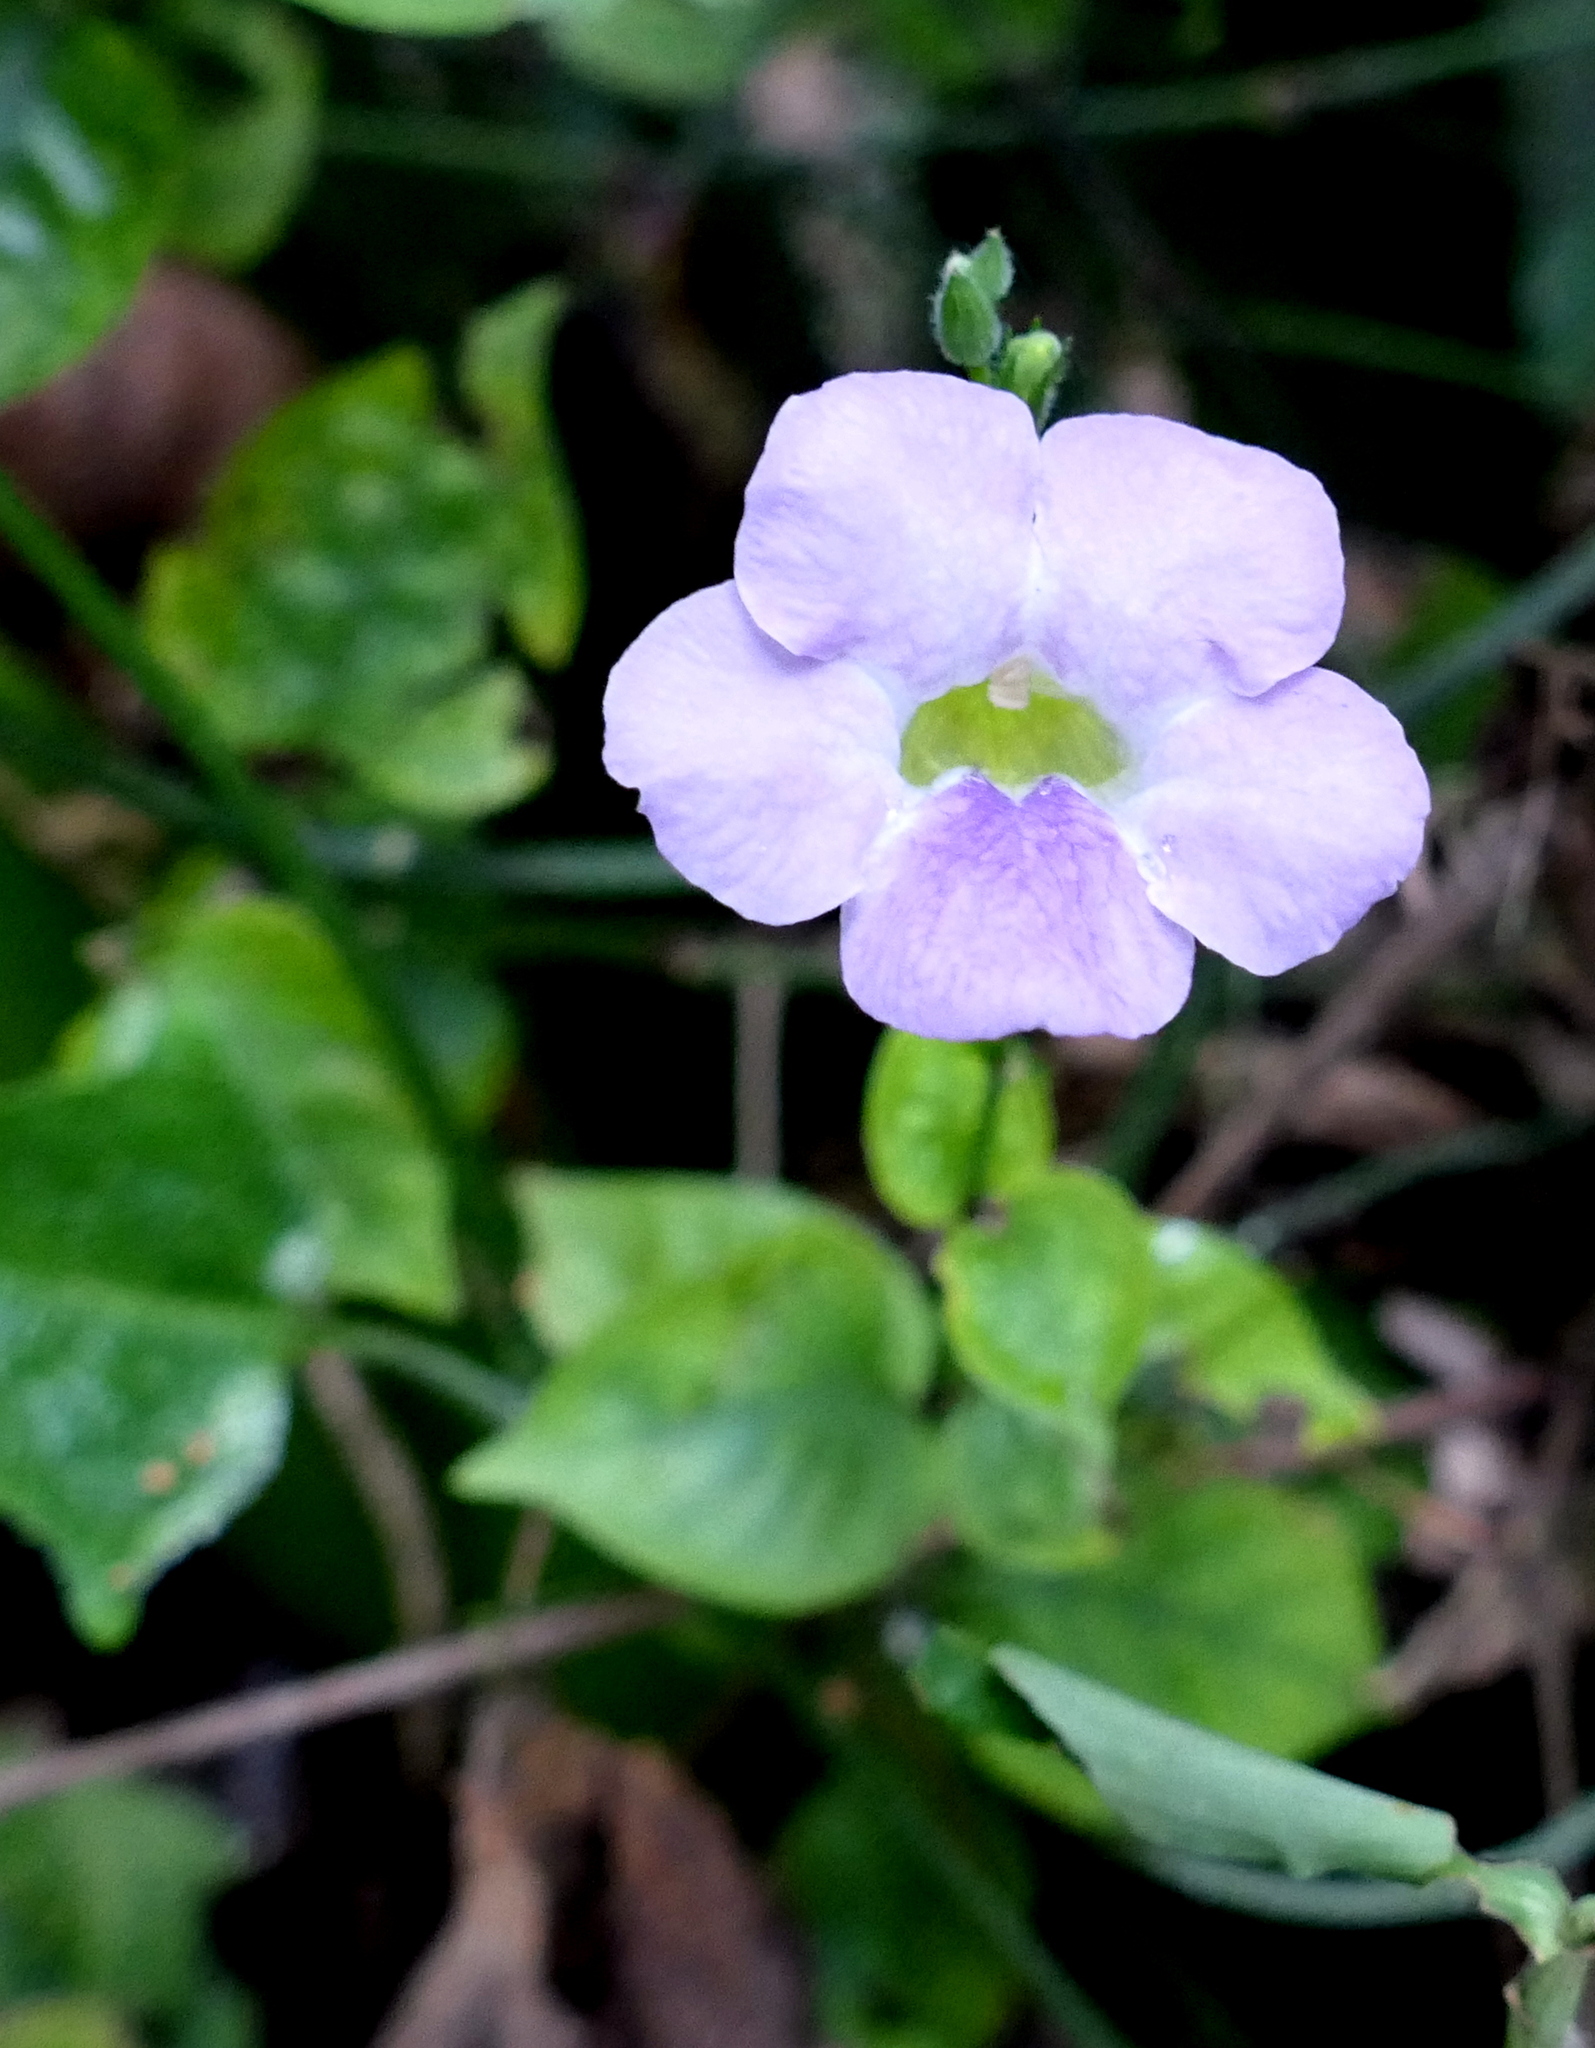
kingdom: Plantae
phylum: Tracheophyta
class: Magnoliopsida
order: Lamiales
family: Acanthaceae
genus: Asystasia
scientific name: Asystasia gangetica
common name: Chinese violet
